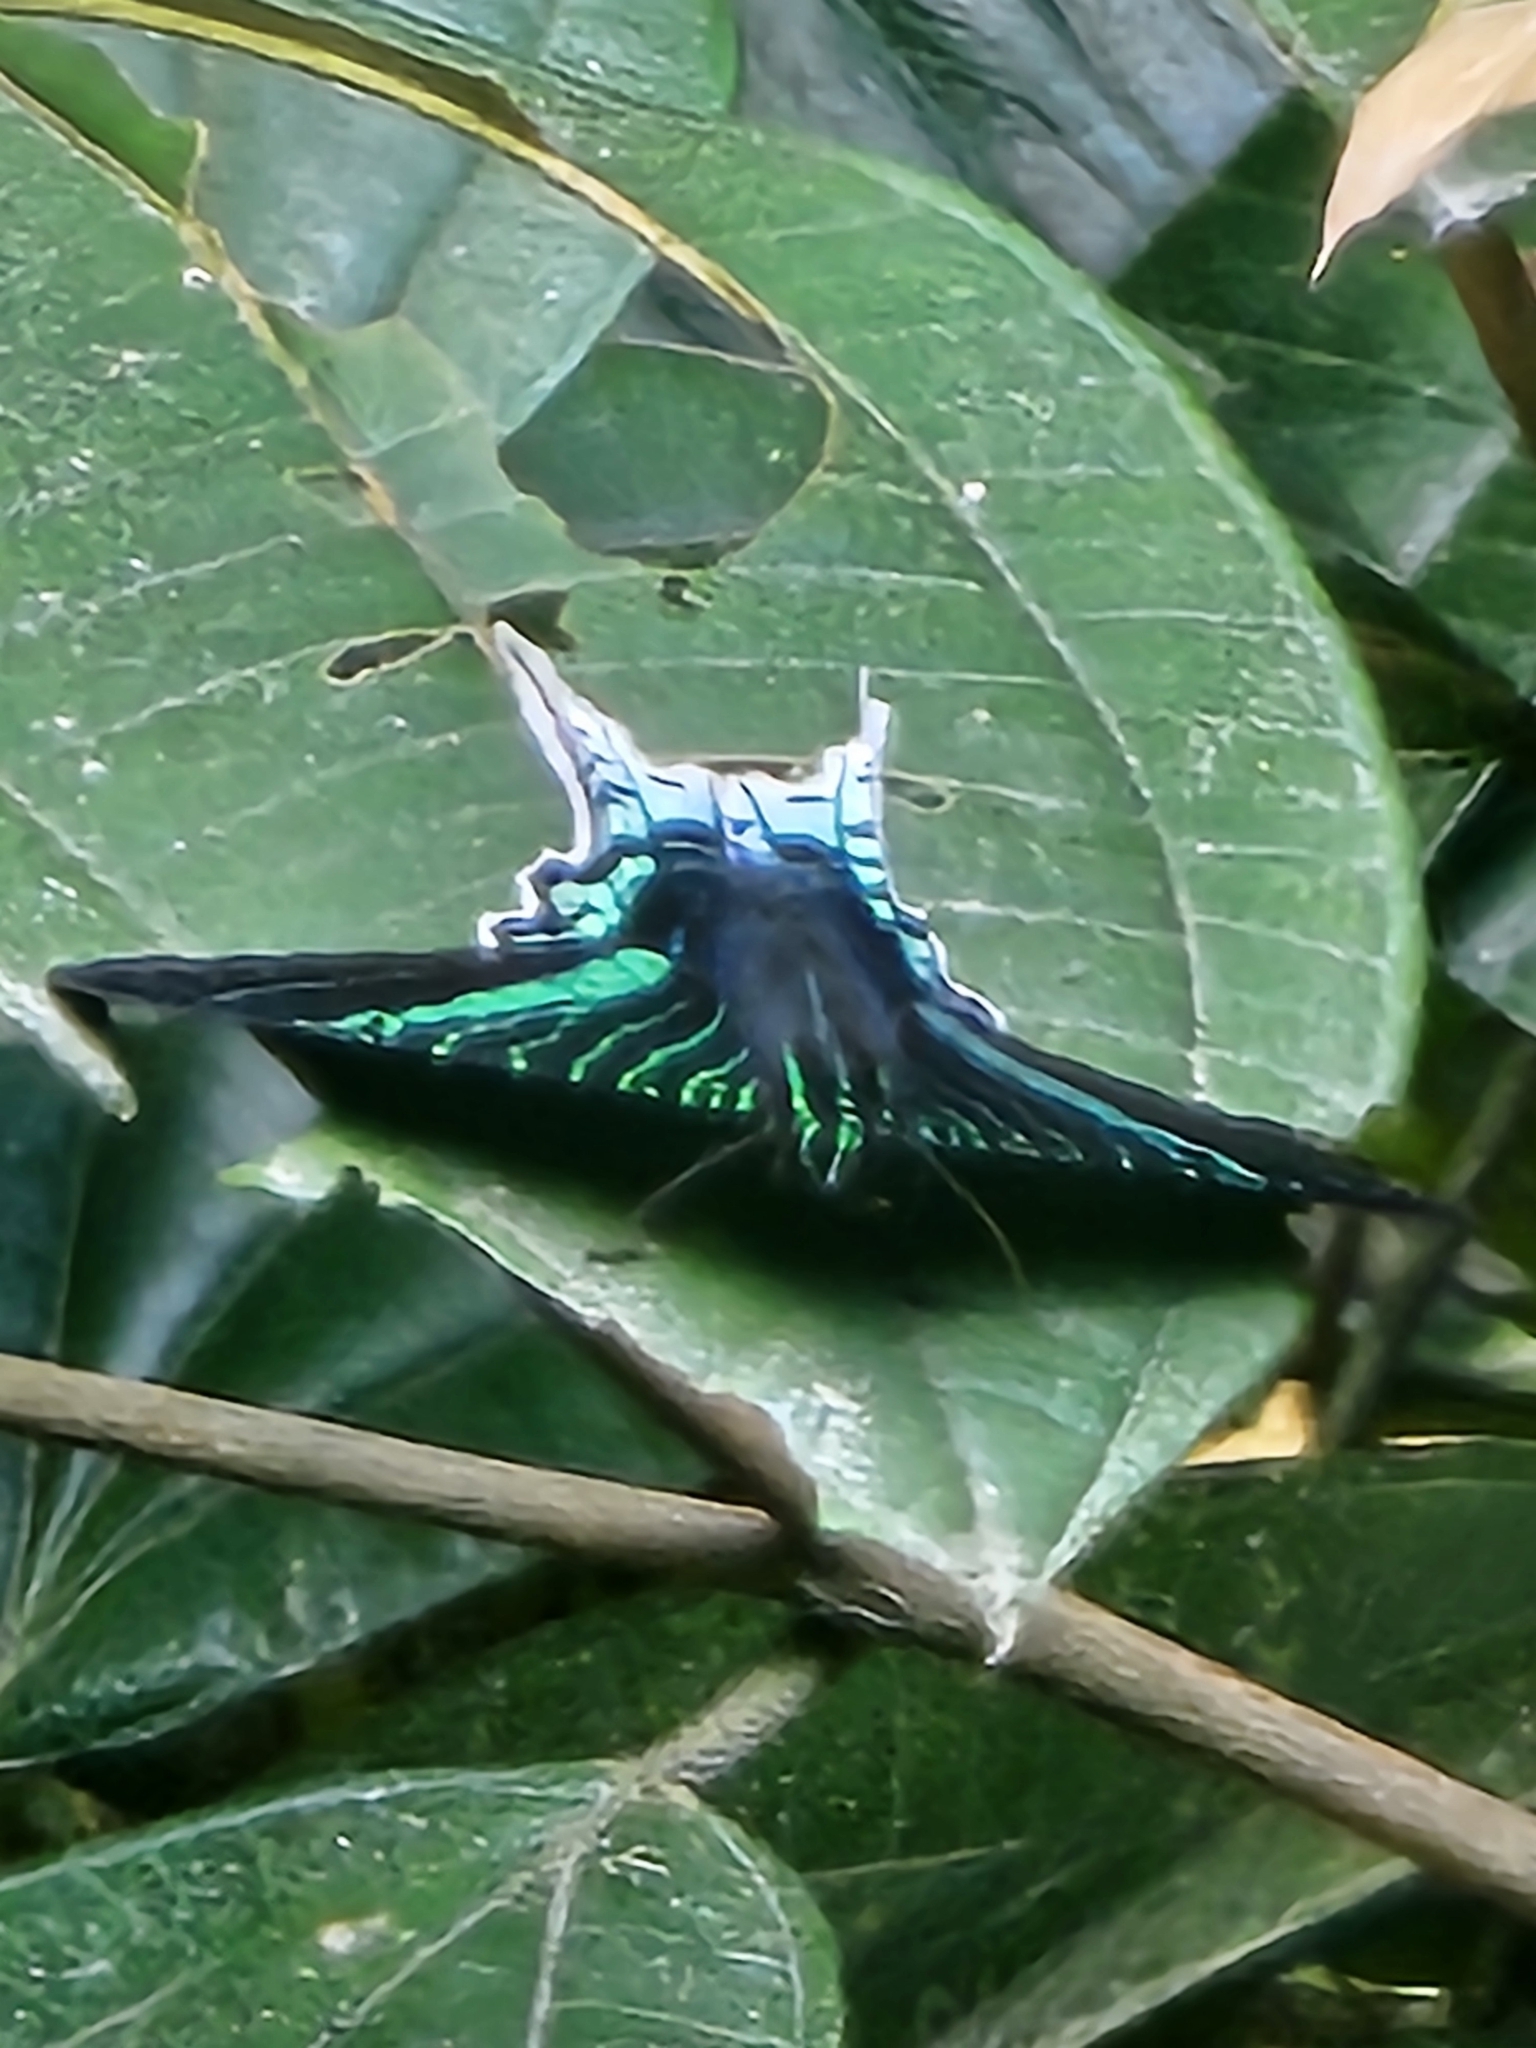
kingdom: Animalia
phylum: Arthropoda
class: Insecta
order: Lepidoptera
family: Uraniidae
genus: Urania
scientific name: Urania leilus
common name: Peacock moth
